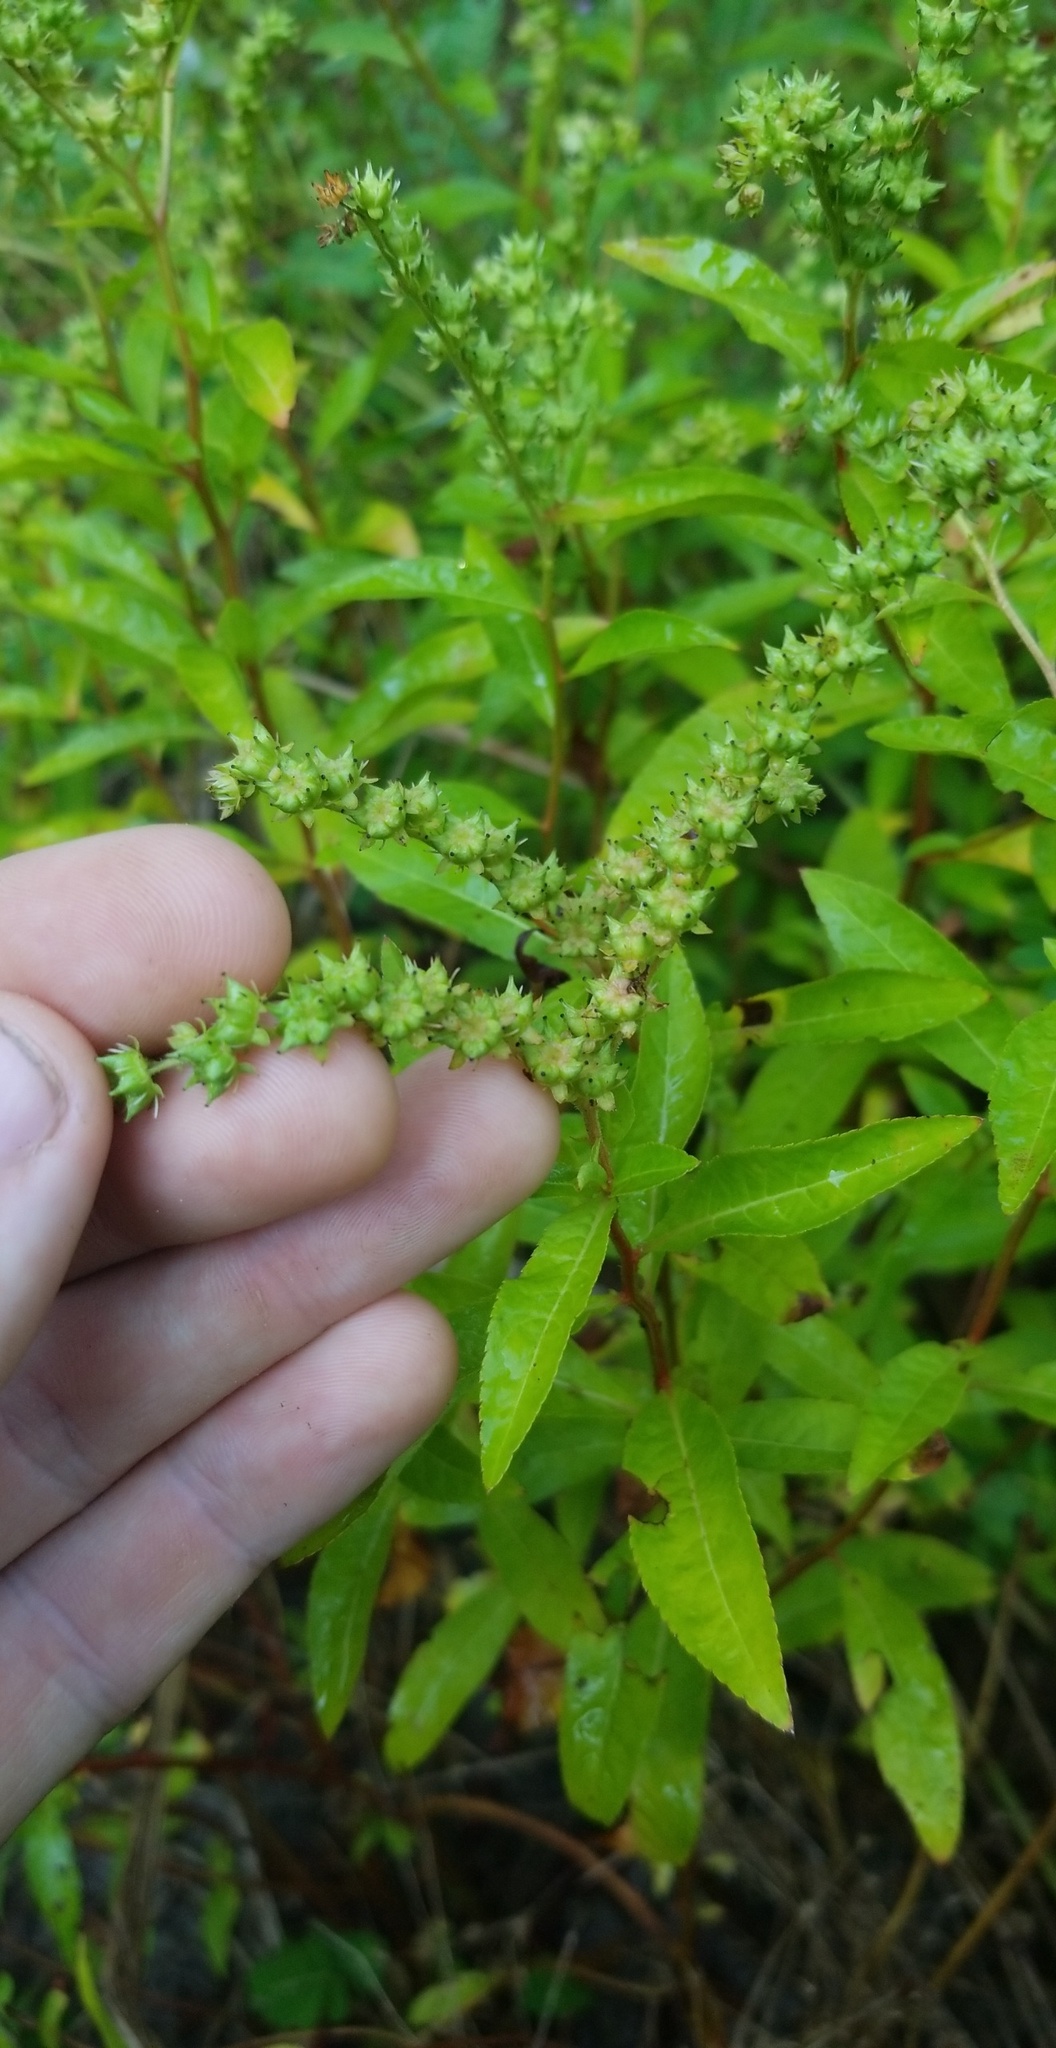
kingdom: Plantae
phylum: Tracheophyta
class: Magnoliopsida
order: Saxifragales
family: Penthoraceae
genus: Penthorum
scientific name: Penthorum sedoides
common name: Ditch stonecrop
